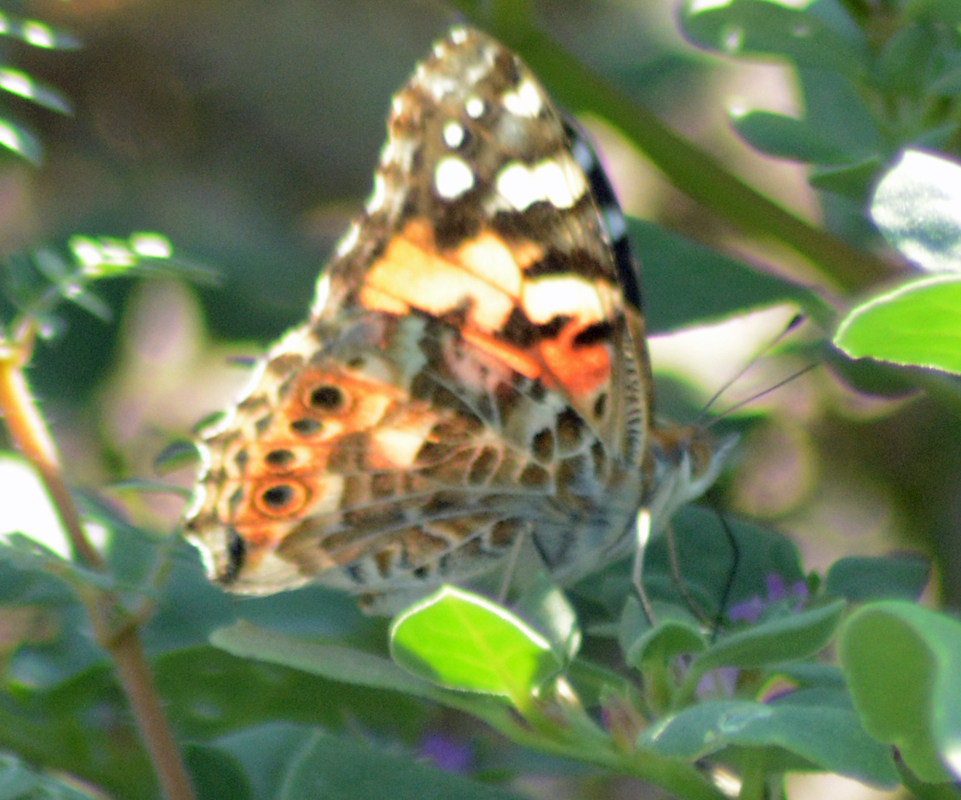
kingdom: Animalia
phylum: Arthropoda
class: Insecta
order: Lepidoptera
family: Nymphalidae
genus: Vanessa
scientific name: Vanessa cardui
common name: Painted lady
